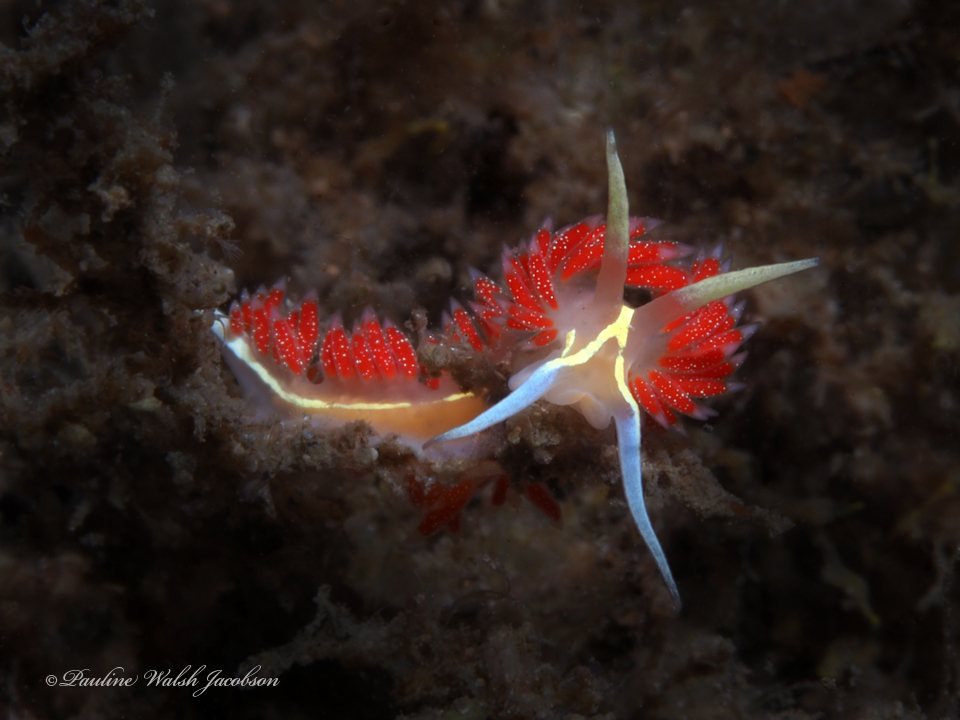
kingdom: Animalia
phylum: Mollusca
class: Gastropoda
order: Nudibranchia
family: Coryphellidae
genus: Coryphella
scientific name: Coryphella verta
